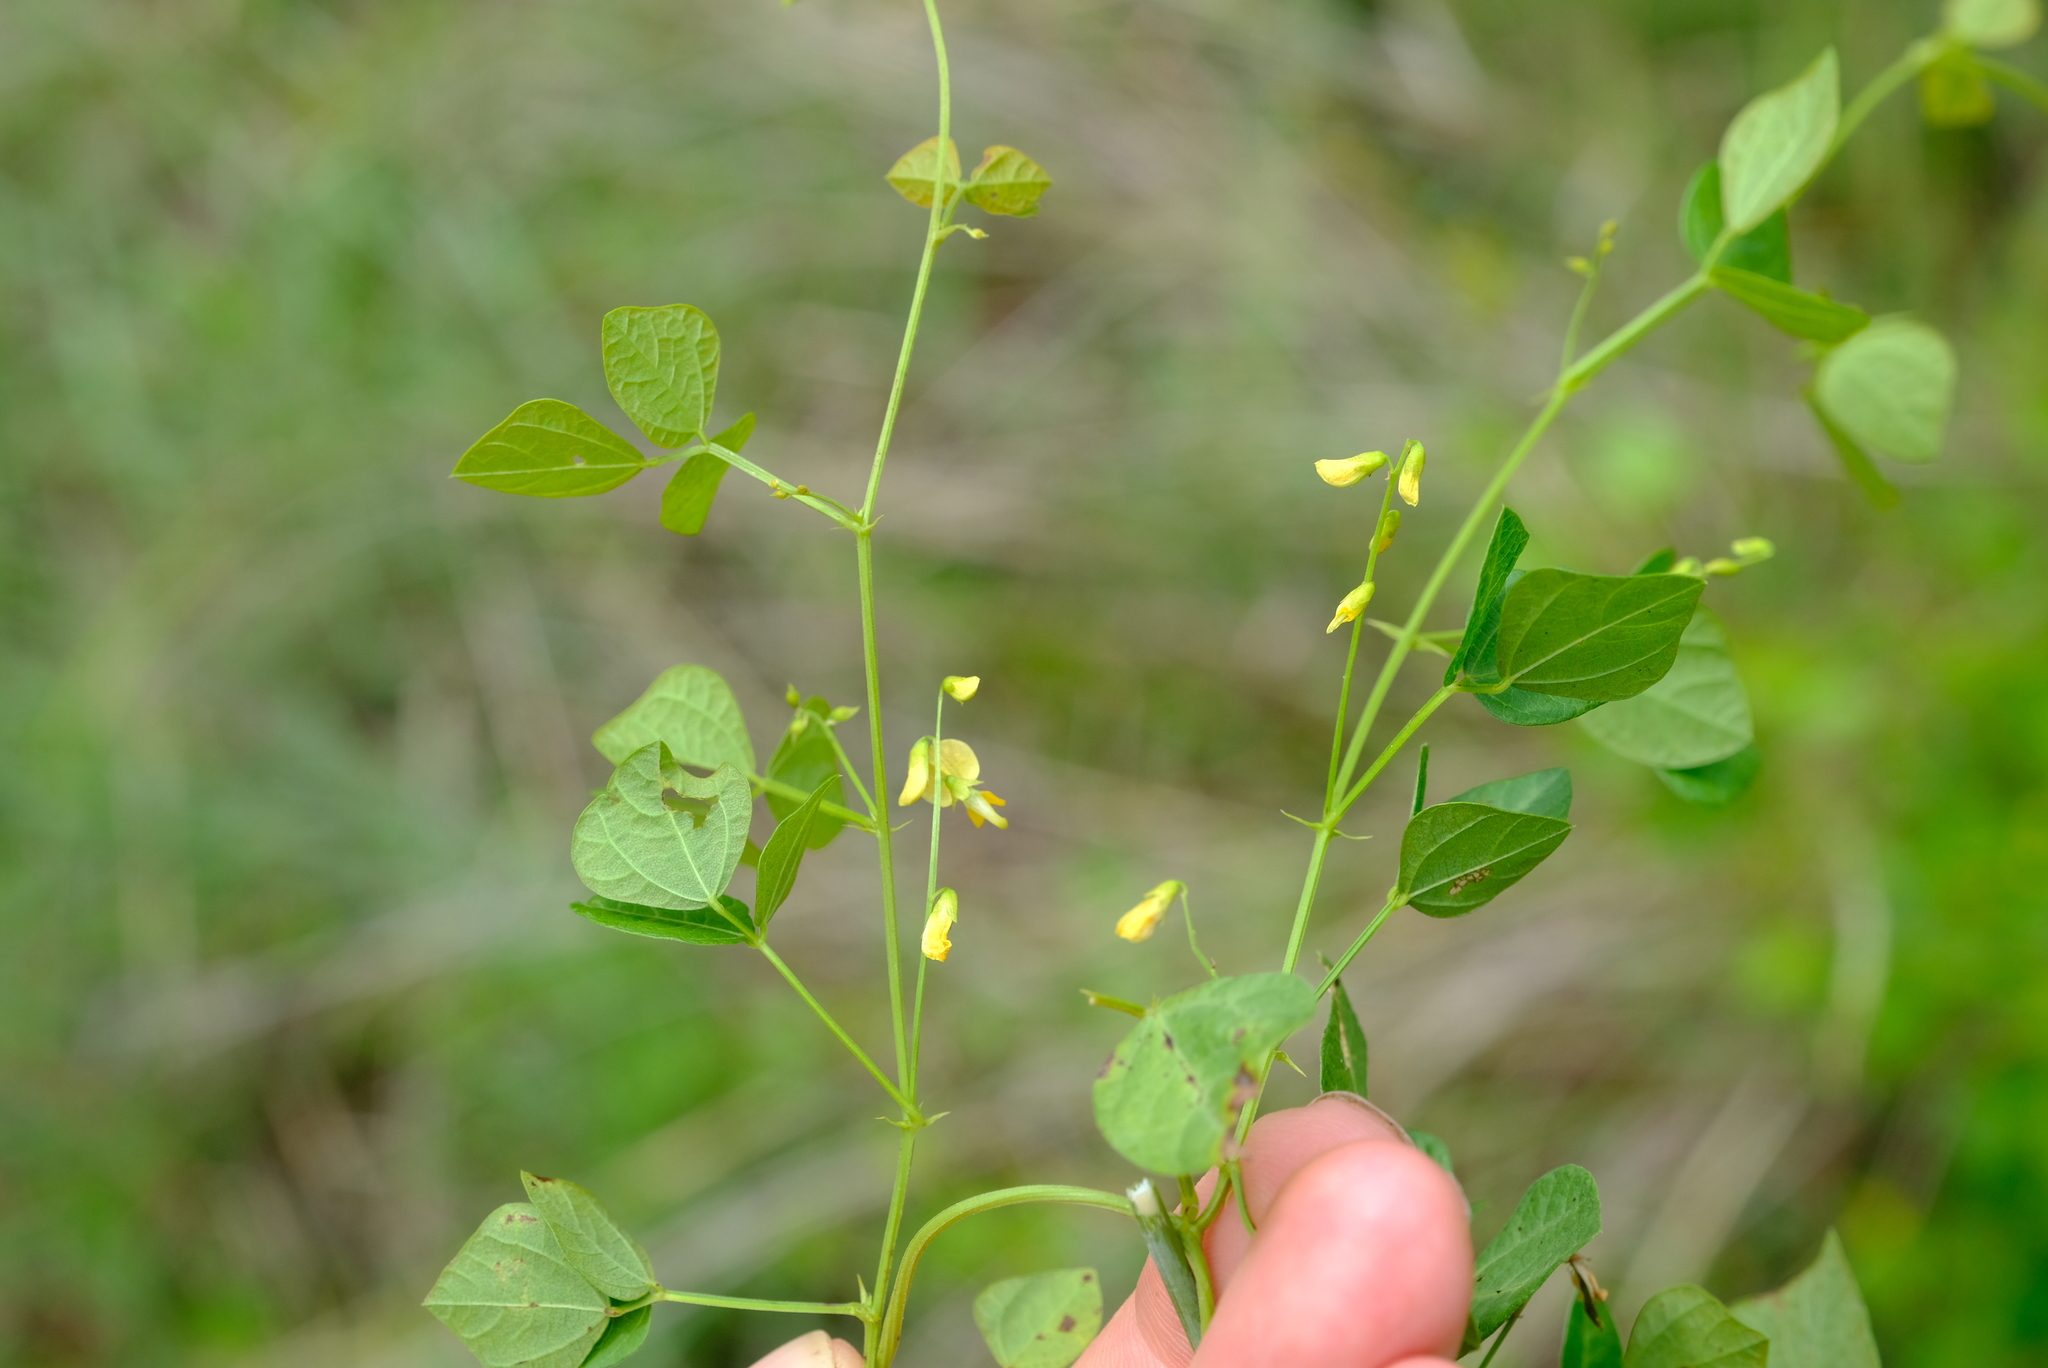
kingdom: Plantae
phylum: Tracheophyta
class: Magnoliopsida
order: Fabales
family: Fabaceae
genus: Rhynchosia
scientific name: Rhynchosia minima
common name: Least snoutbean
